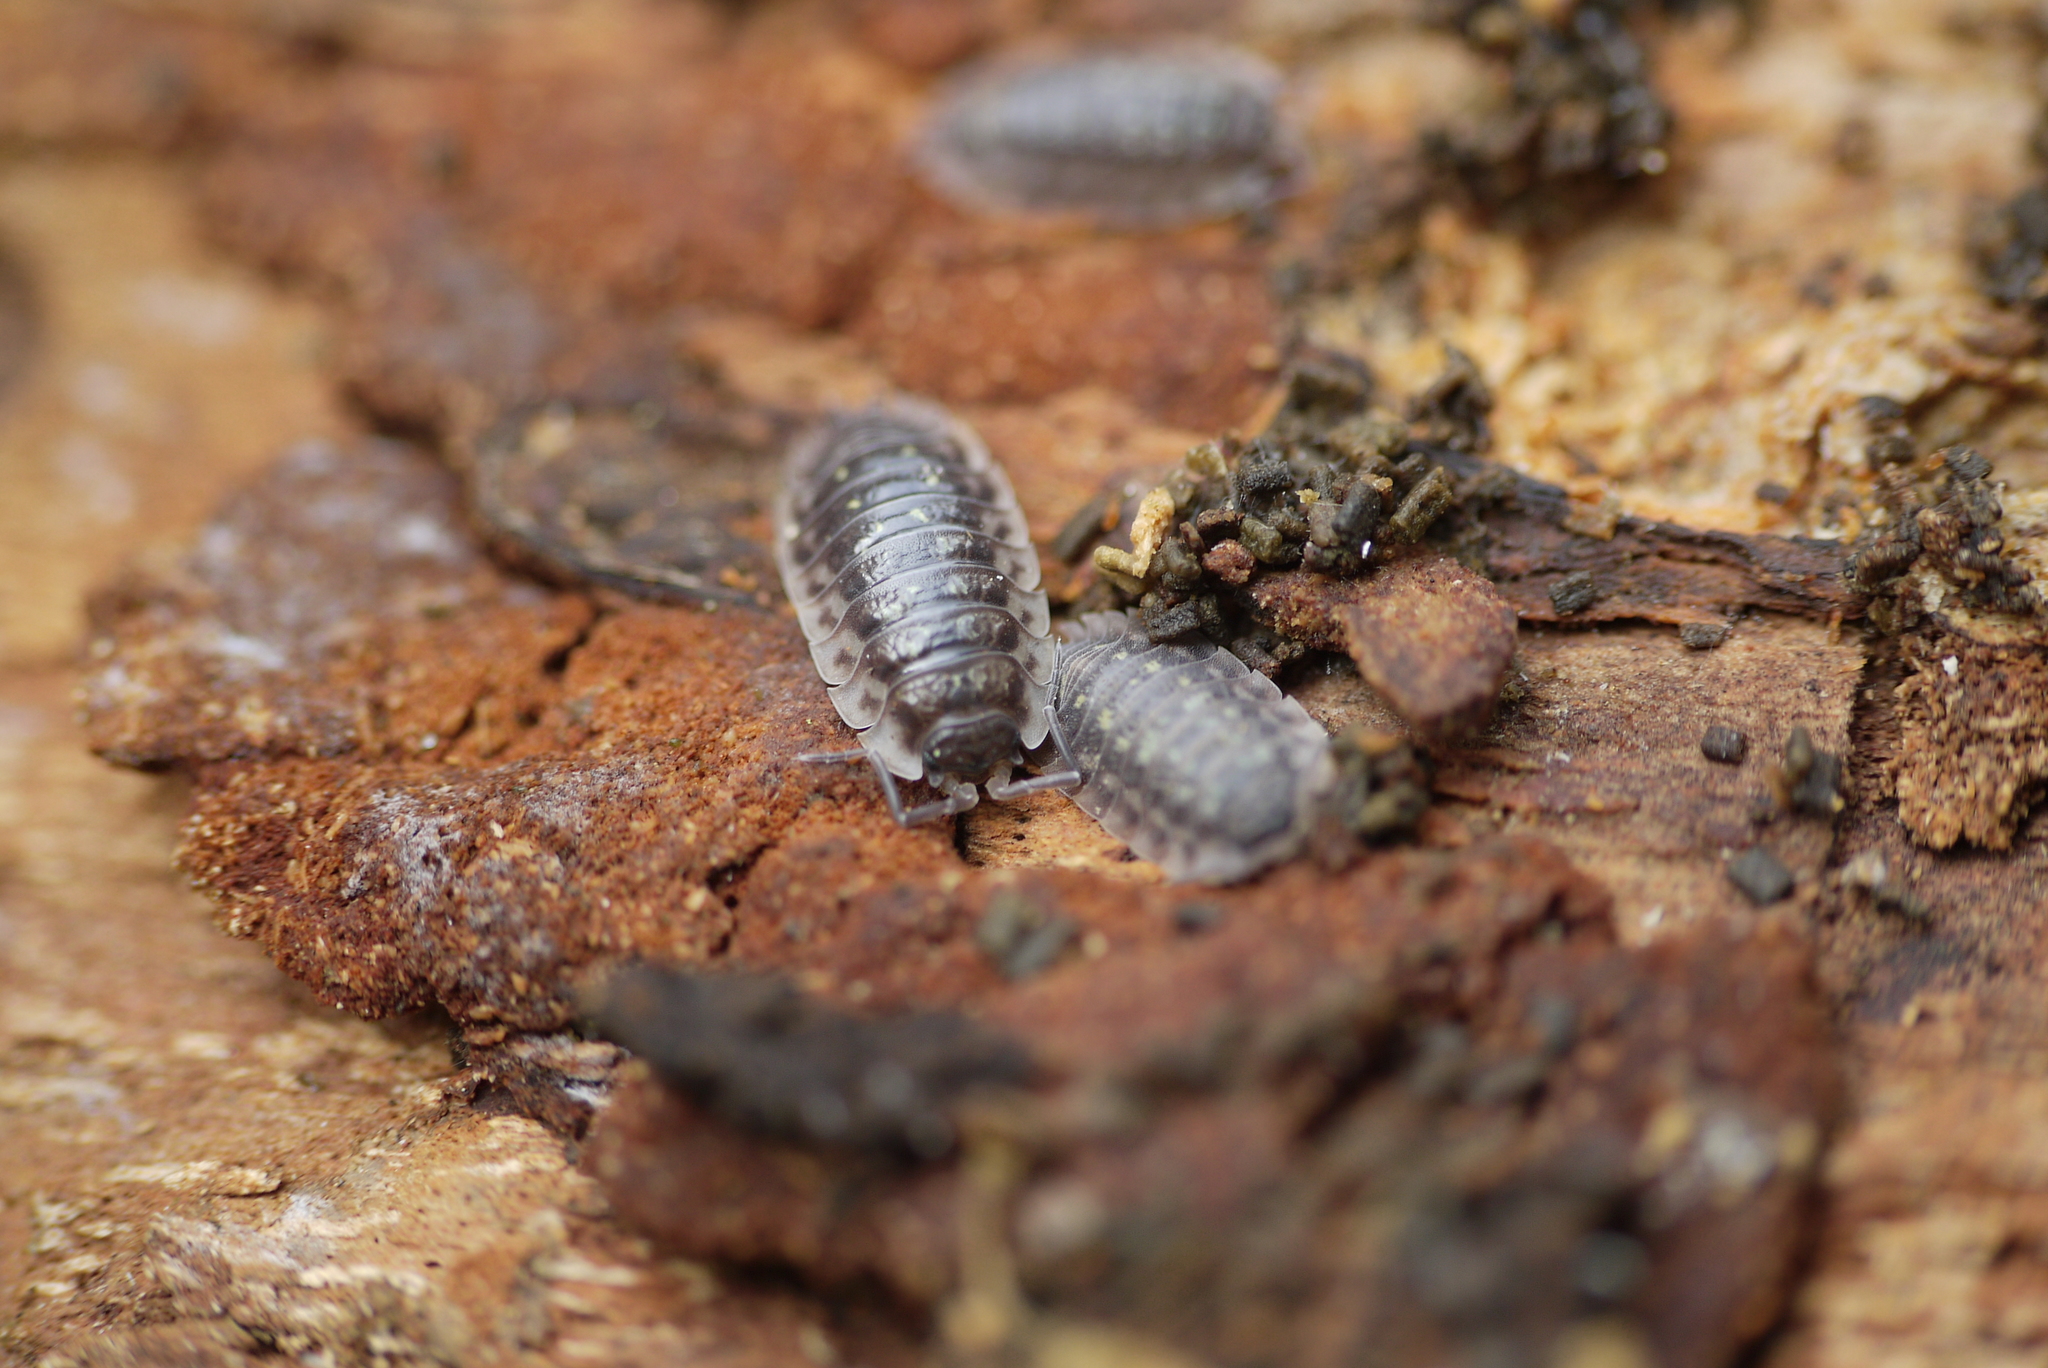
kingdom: Animalia
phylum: Arthropoda
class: Malacostraca
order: Isopoda
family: Oniscidae
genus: Oniscus
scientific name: Oniscus asellus
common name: Common shiny woodlouse
